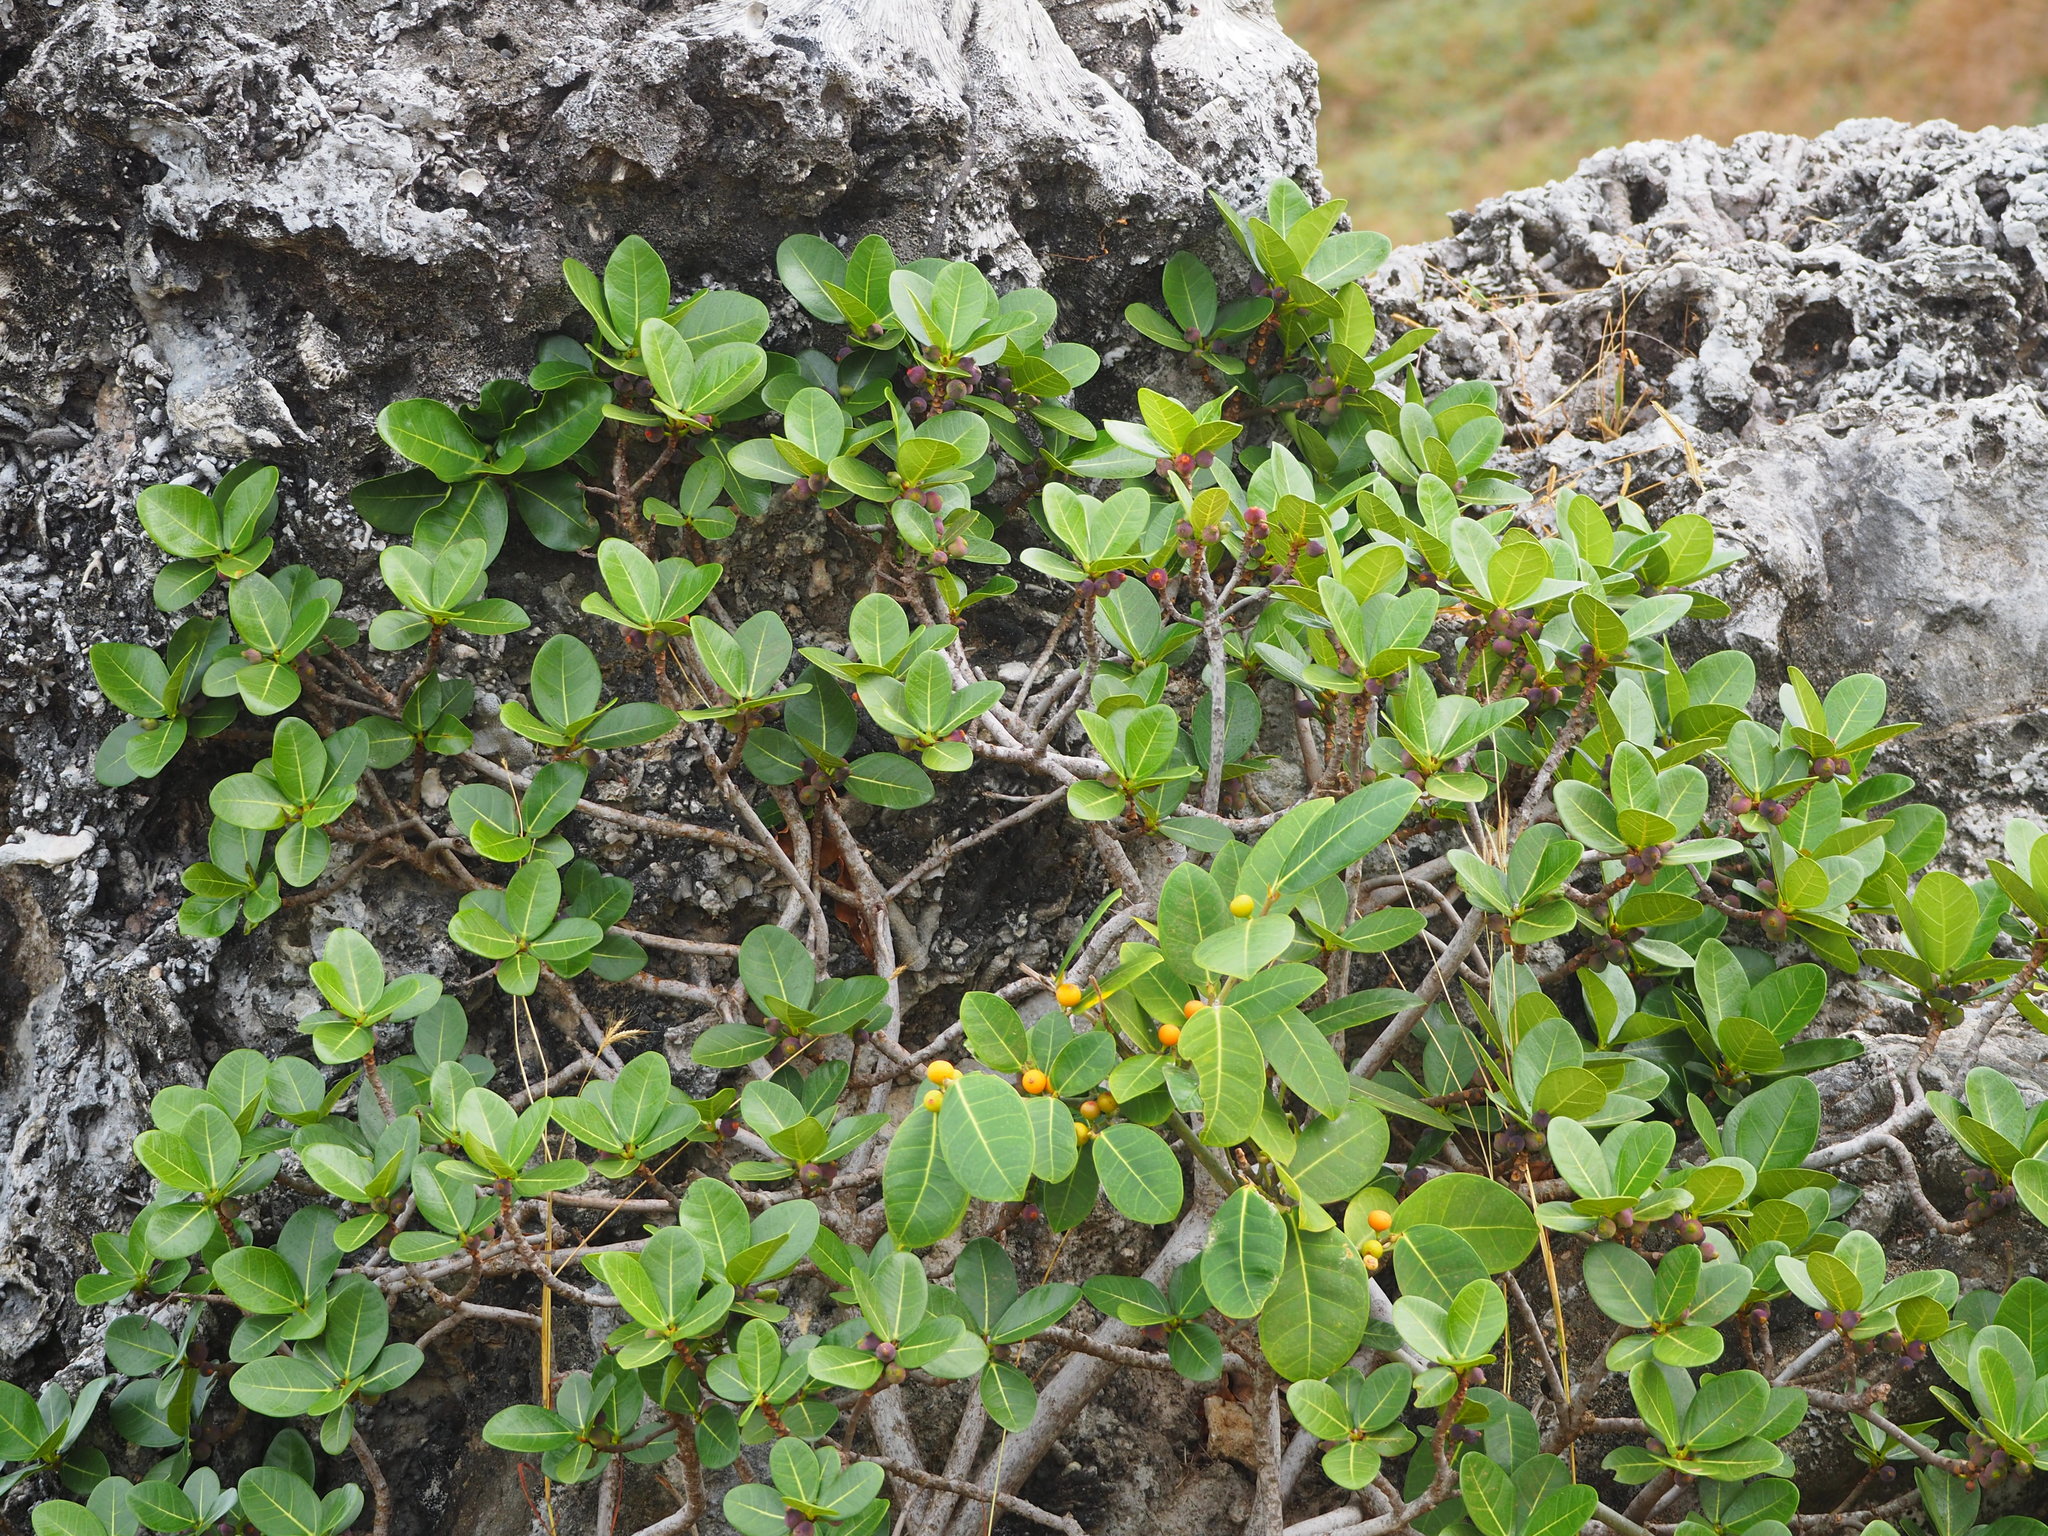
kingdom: Plantae
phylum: Tracheophyta
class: Magnoliopsida
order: Rosales
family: Moraceae
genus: Ficus
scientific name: Ficus tinctoria
